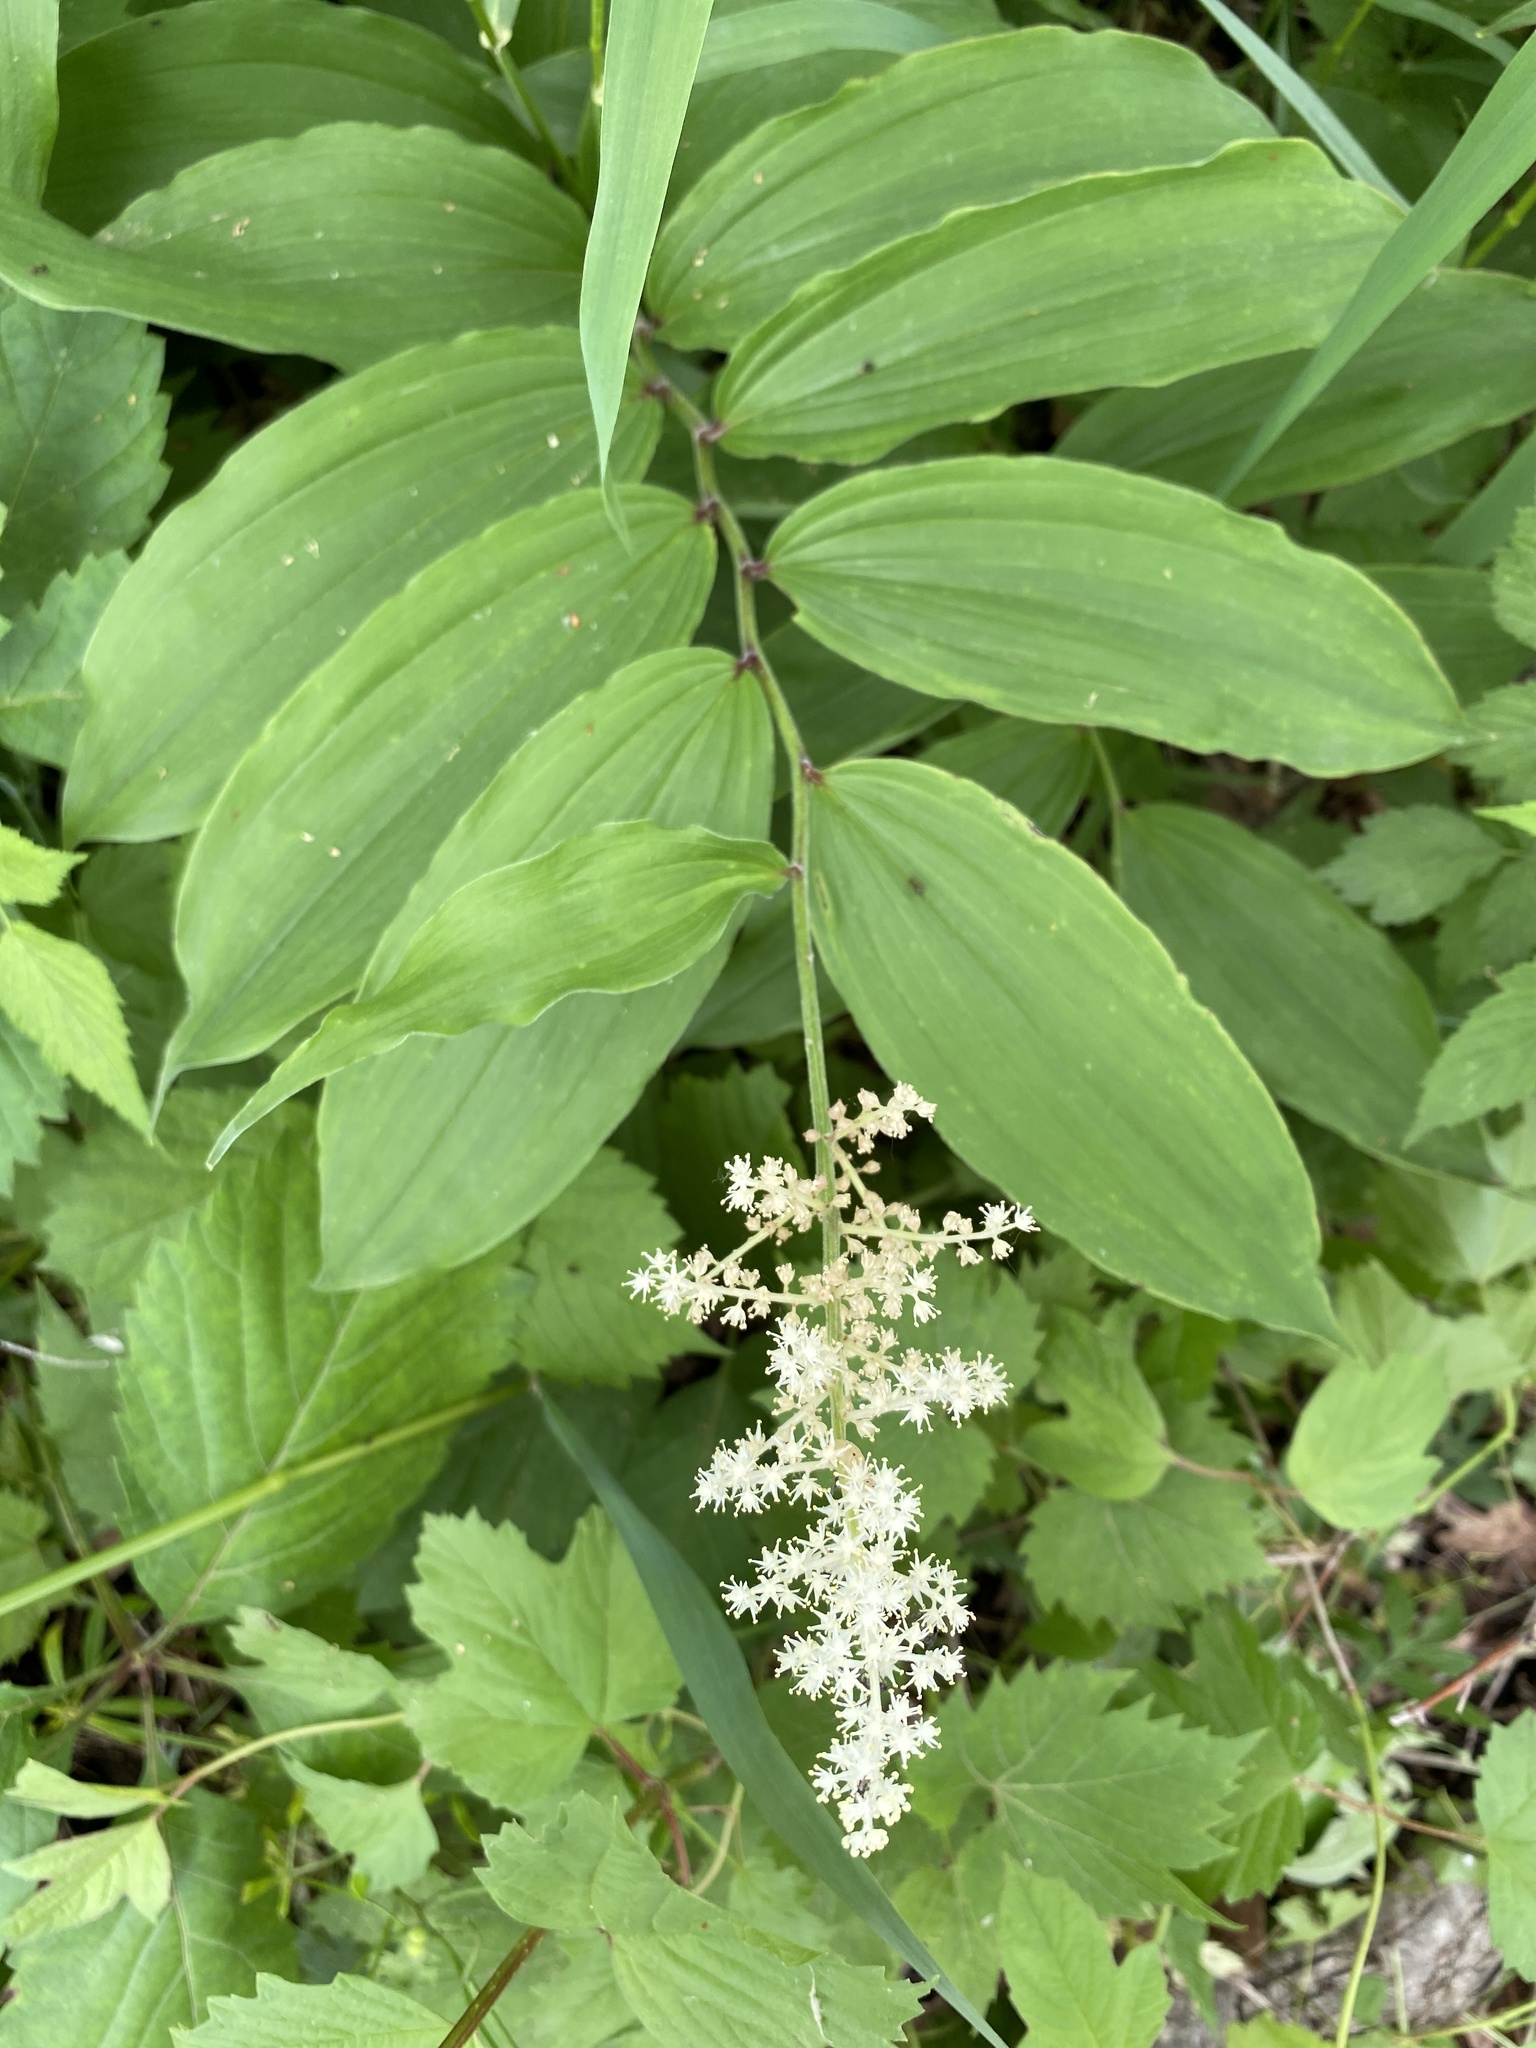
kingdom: Plantae
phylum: Tracheophyta
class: Liliopsida
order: Asparagales
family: Asparagaceae
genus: Maianthemum
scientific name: Maianthemum racemosum
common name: False spikenard
